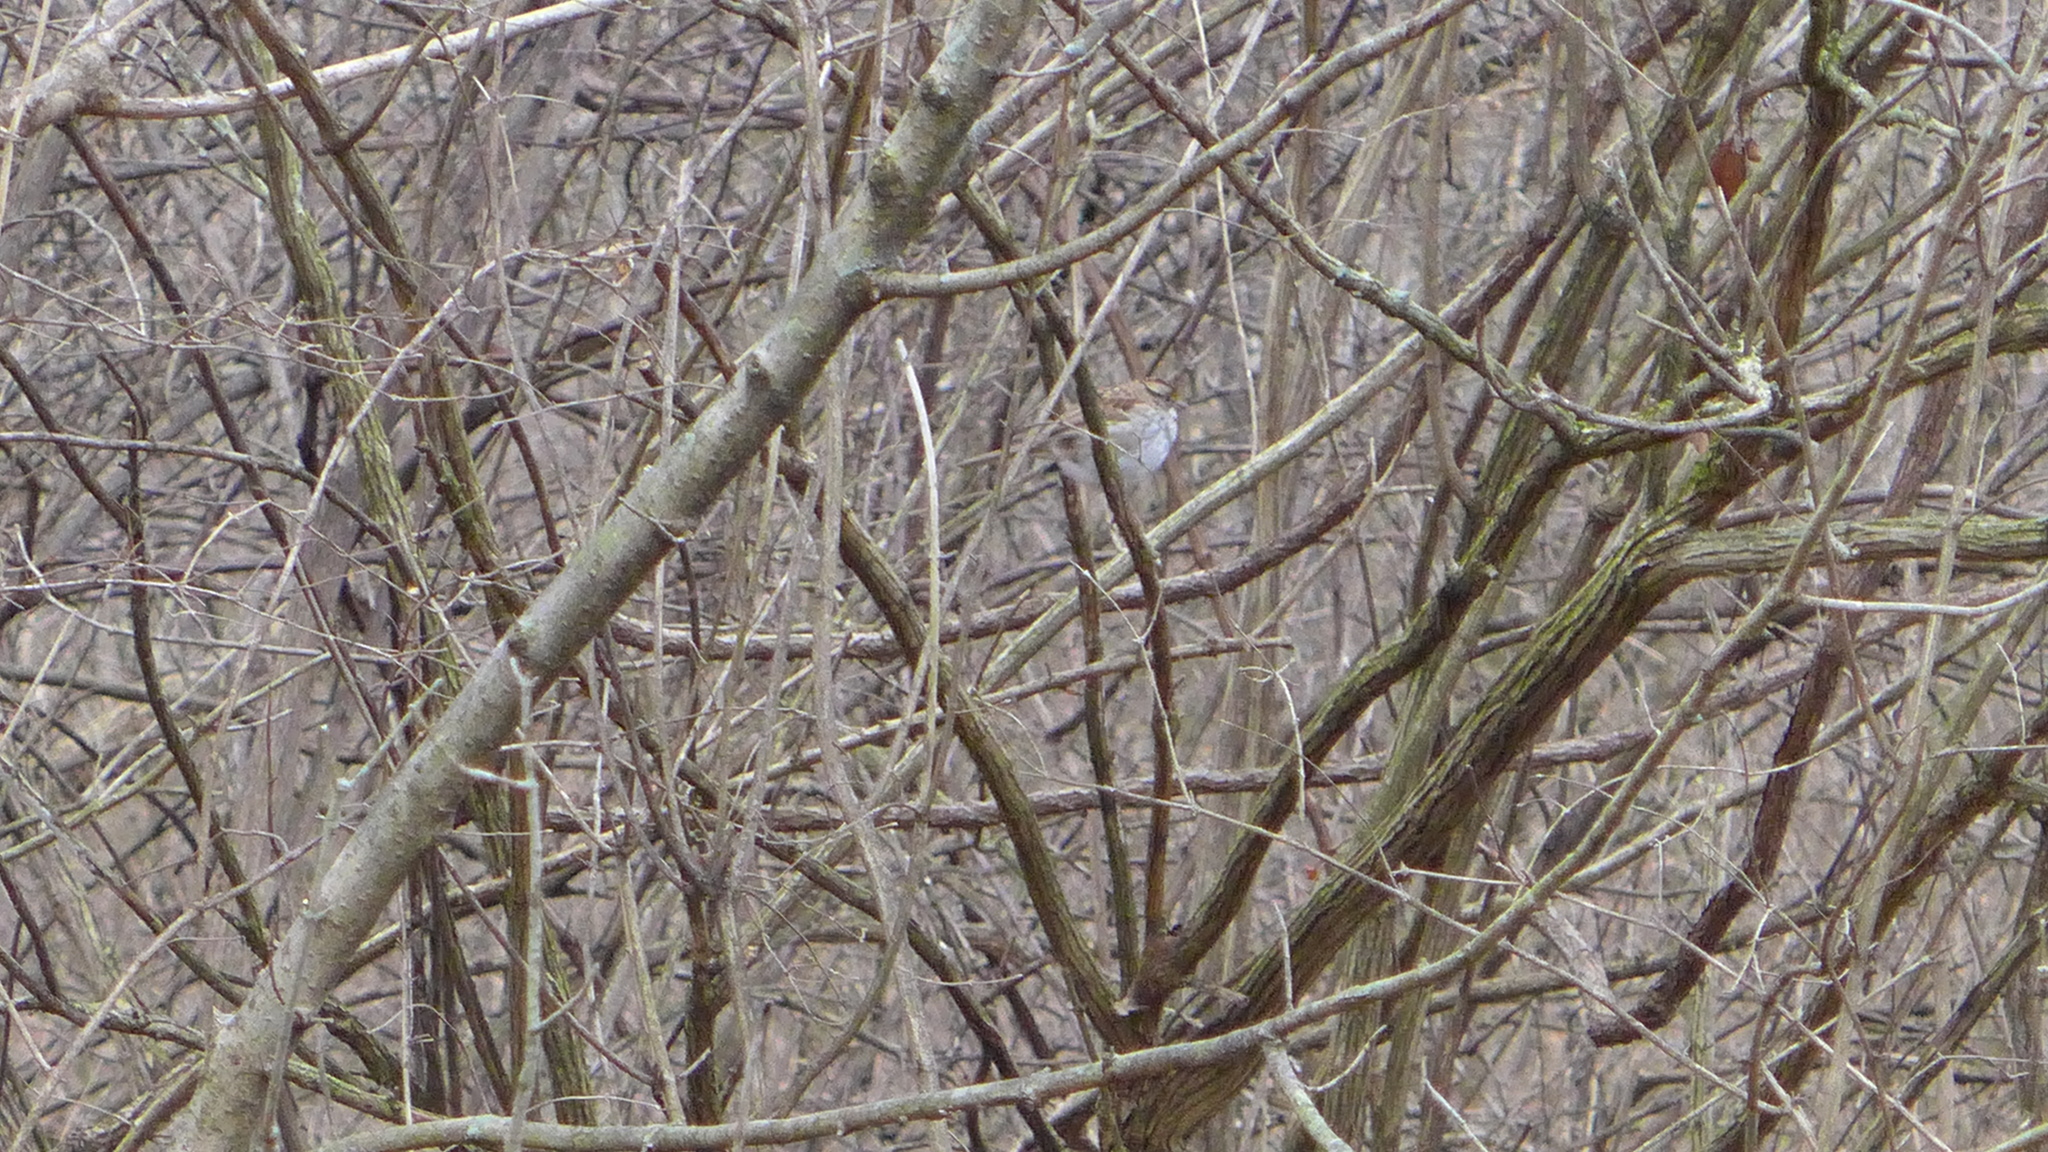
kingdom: Animalia
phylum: Chordata
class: Aves
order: Passeriformes
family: Passerellidae
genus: Zonotrichia
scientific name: Zonotrichia albicollis
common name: White-throated sparrow
